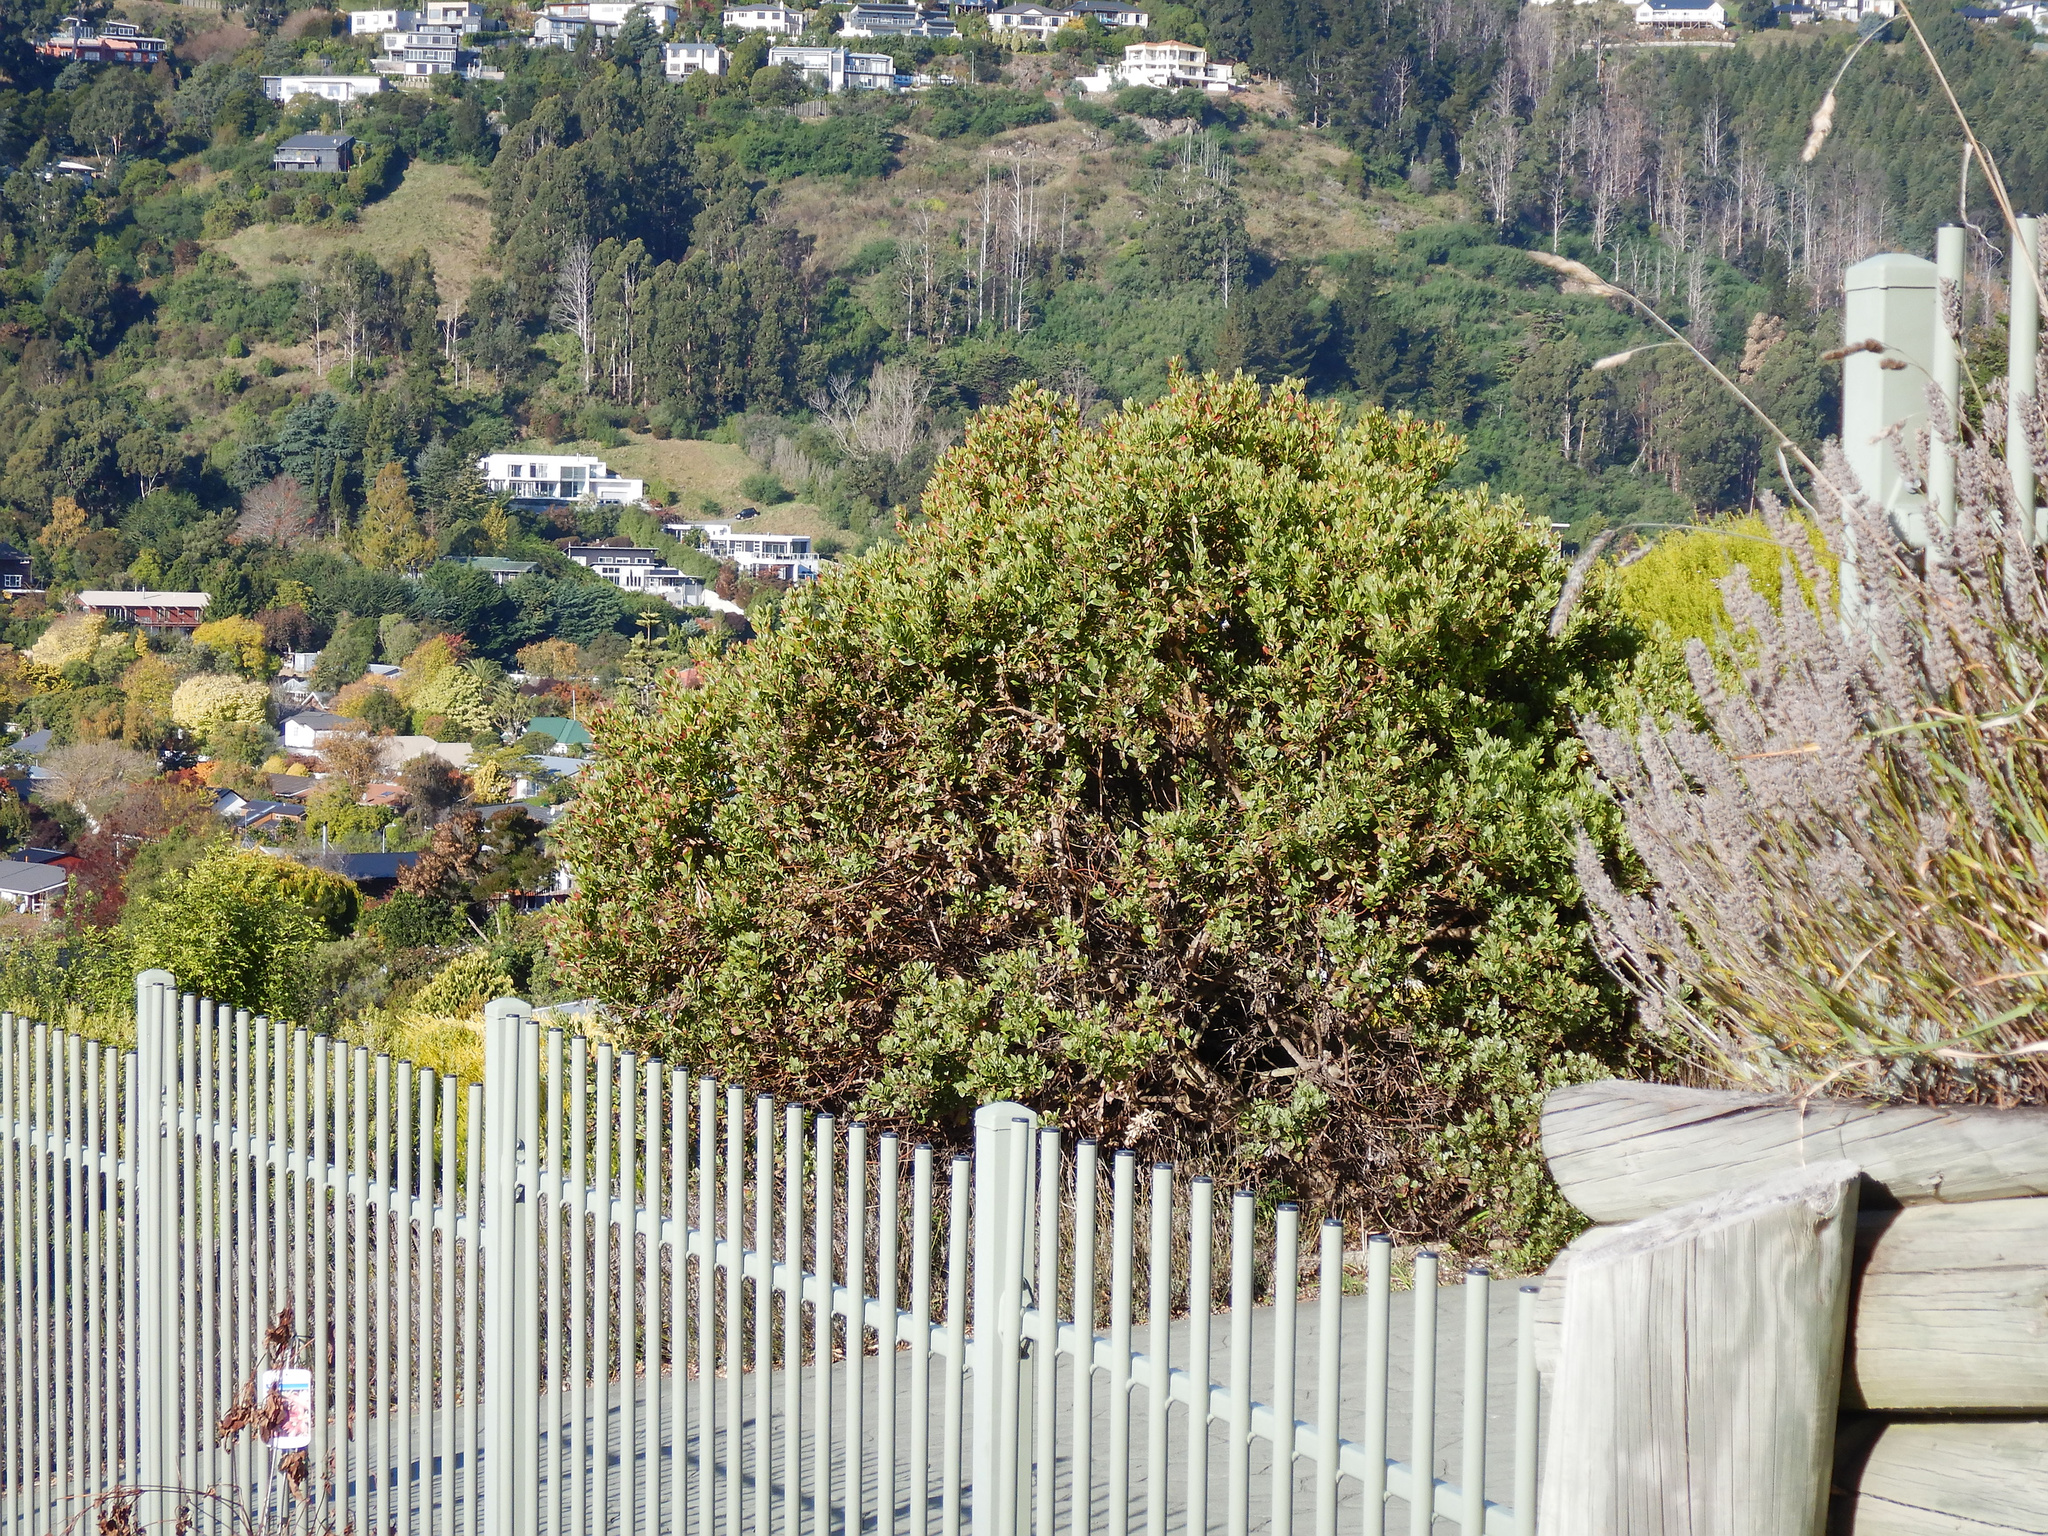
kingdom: Plantae
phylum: Tracheophyta
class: Magnoliopsida
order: Asterales
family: Asteraceae
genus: Osteospermum
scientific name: Osteospermum moniliferum
